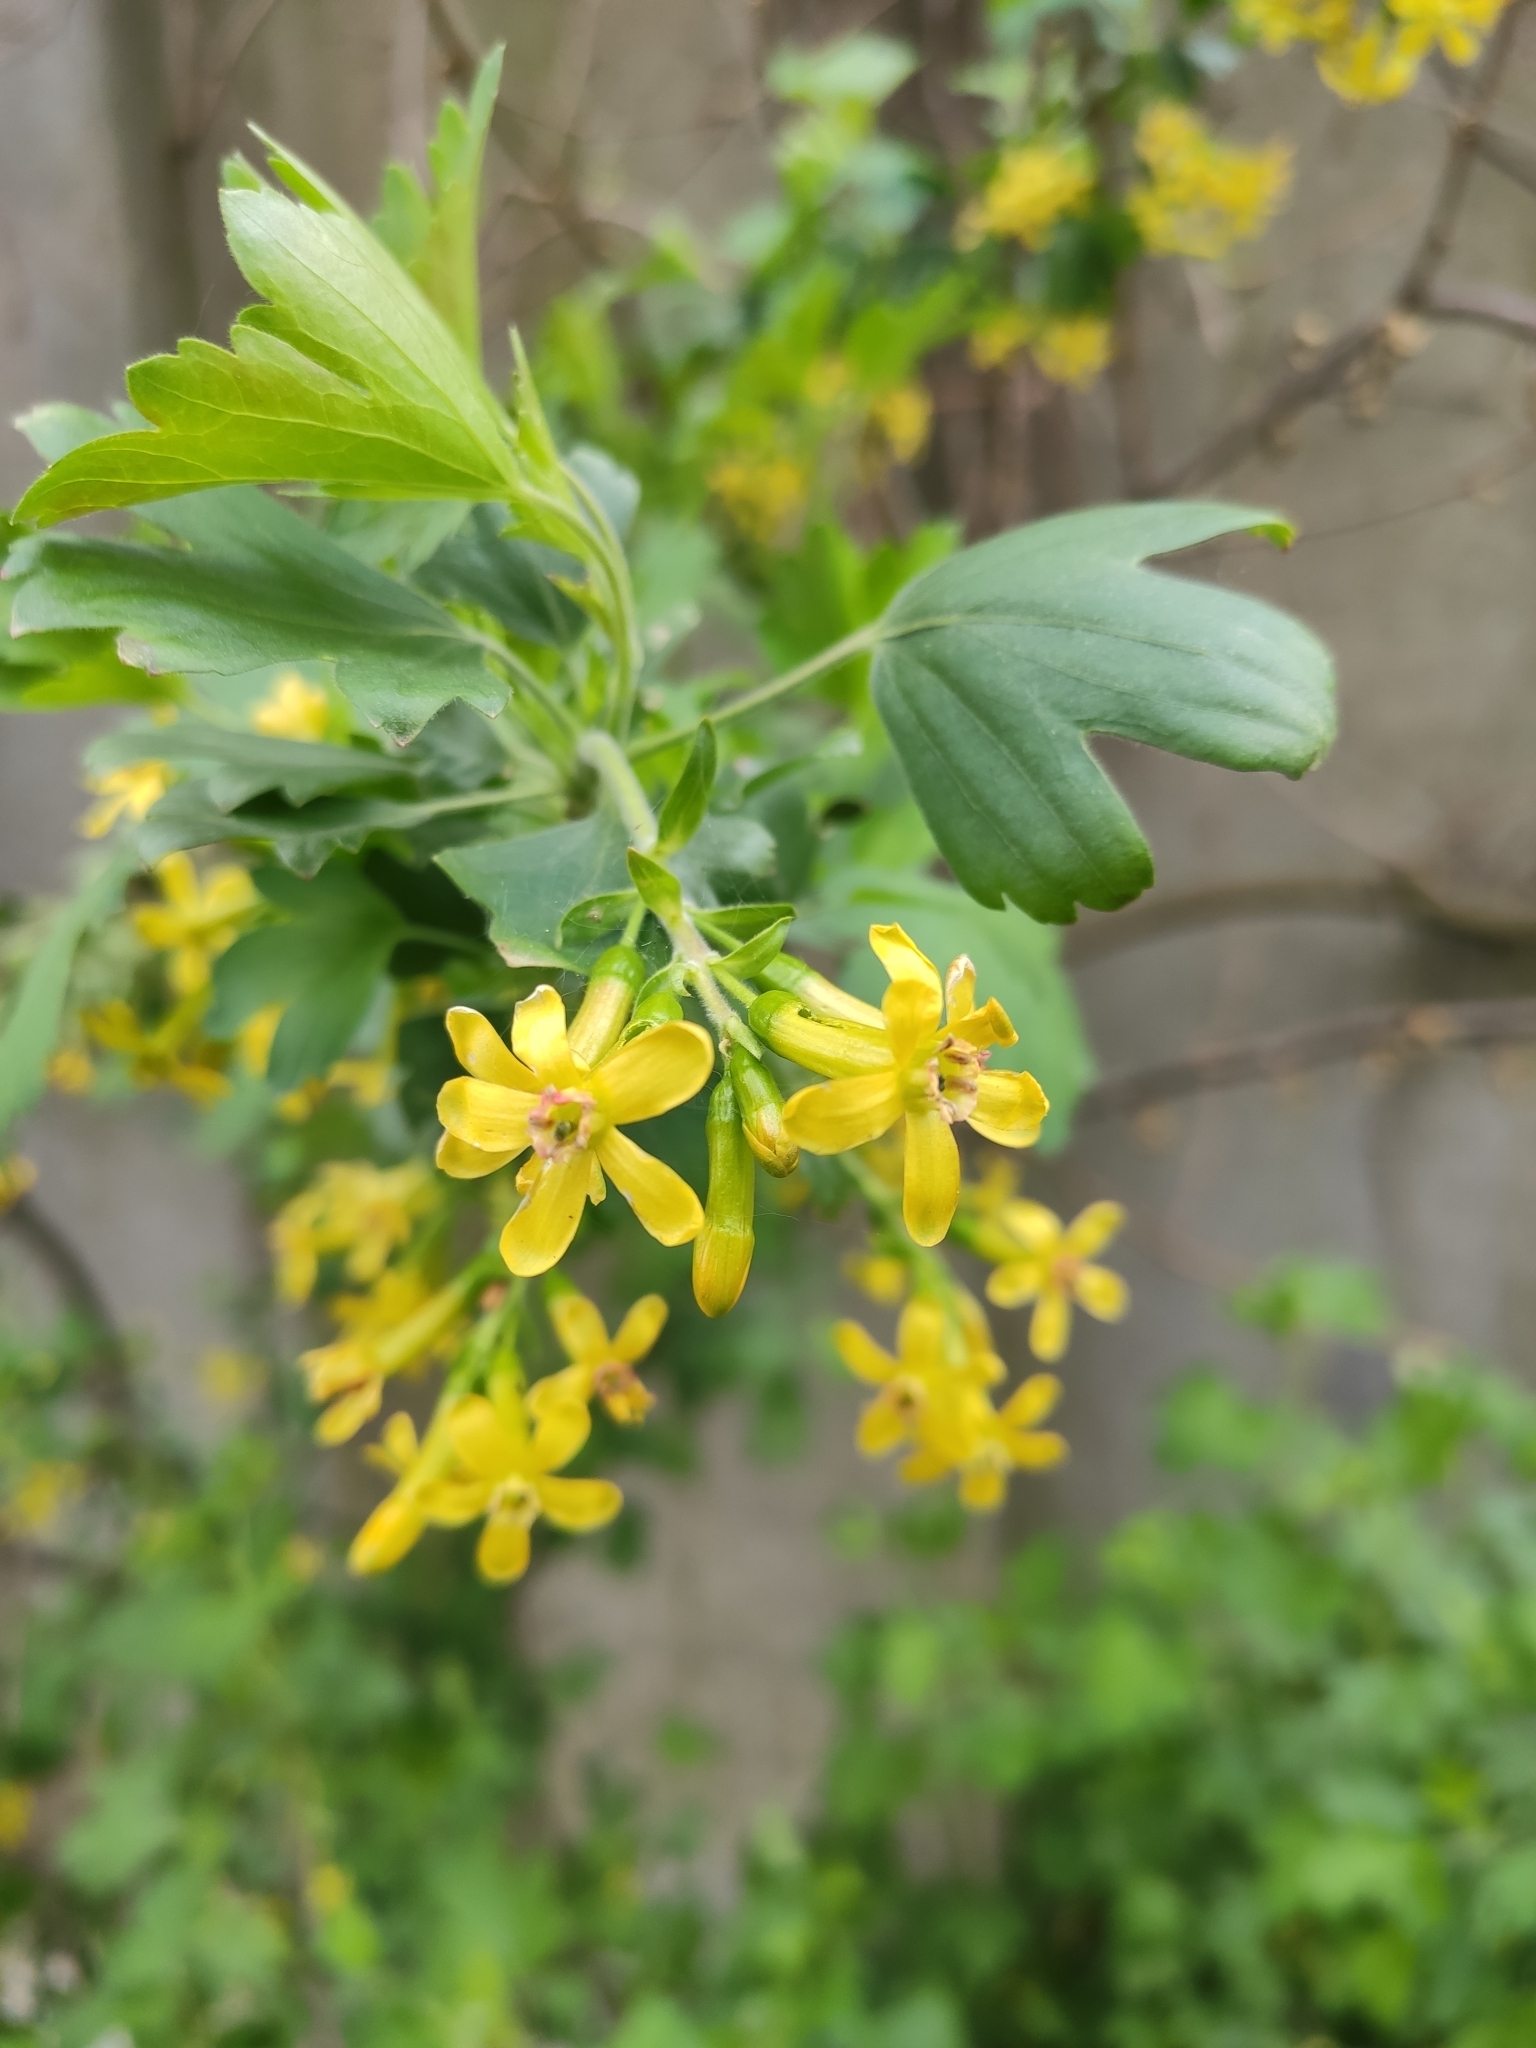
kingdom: Plantae
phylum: Tracheophyta
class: Magnoliopsida
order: Saxifragales
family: Grossulariaceae
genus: Ribes
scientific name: Ribes aureum
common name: Golden currant
